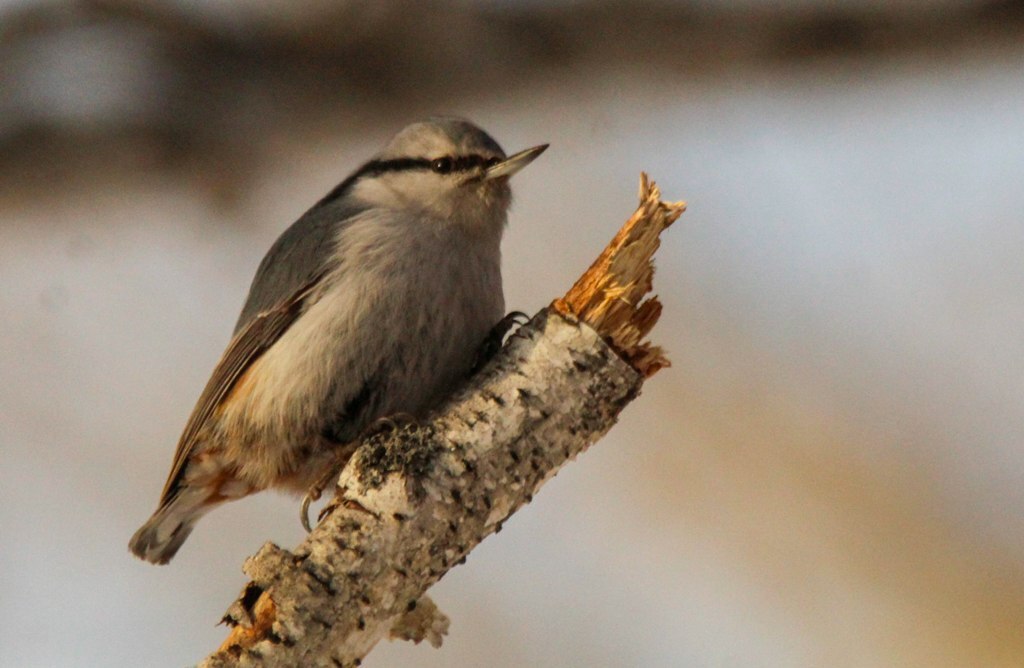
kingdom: Animalia
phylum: Chordata
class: Aves
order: Passeriformes
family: Sittidae
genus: Sitta
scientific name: Sitta europaea
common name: Eurasian nuthatch
